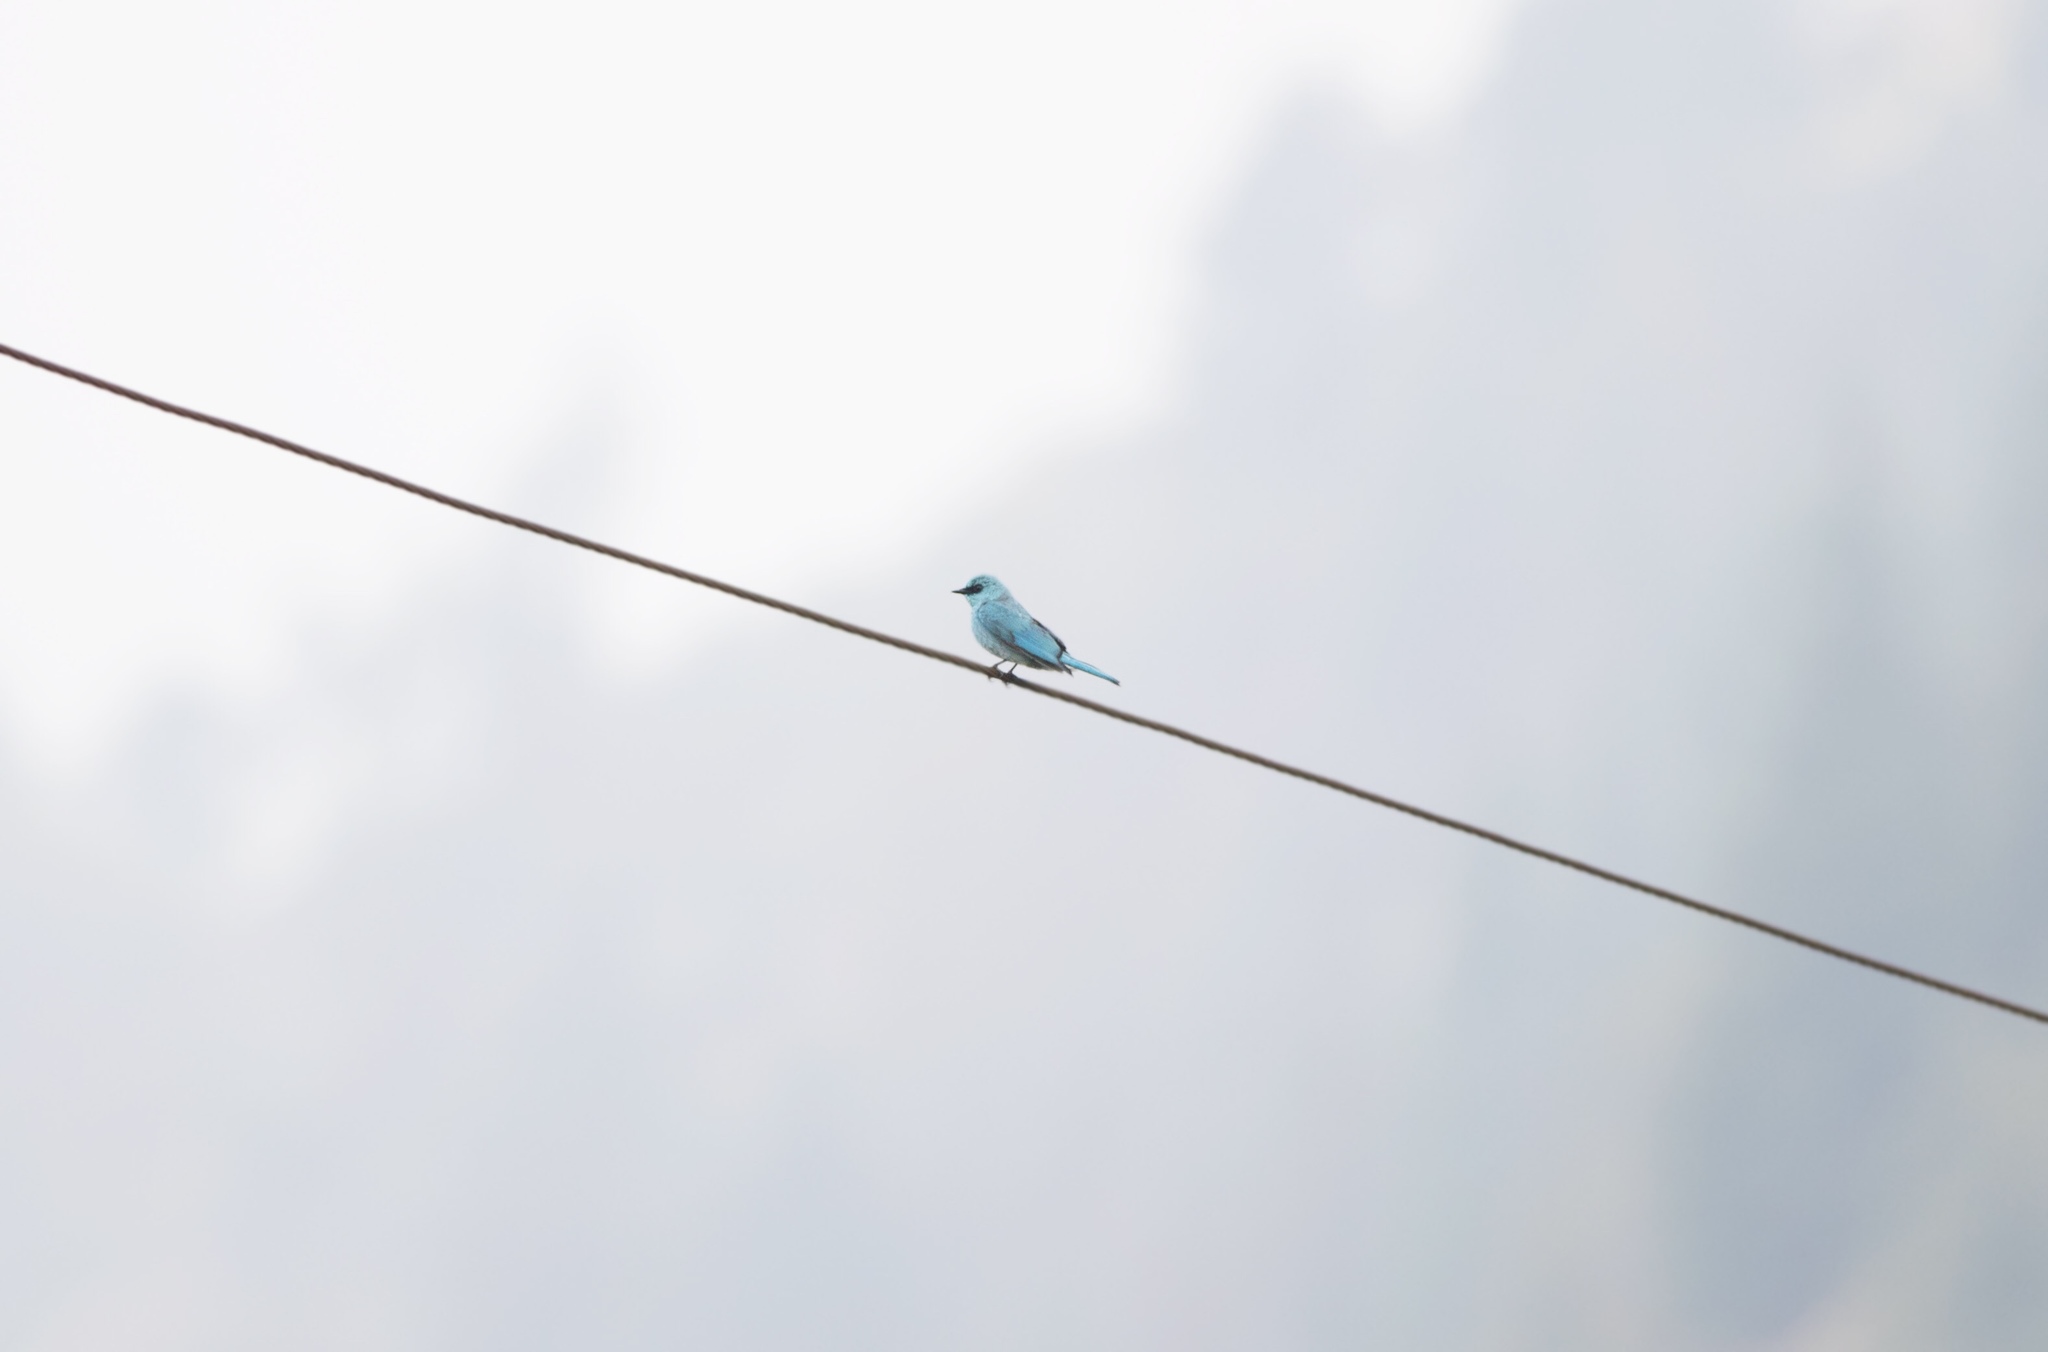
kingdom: Animalia
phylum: Chordata
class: Aves
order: Passeriformes
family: Muscicapidae
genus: Eumyias
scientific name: Eumyias thalassinus
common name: Verditer flycatcher
